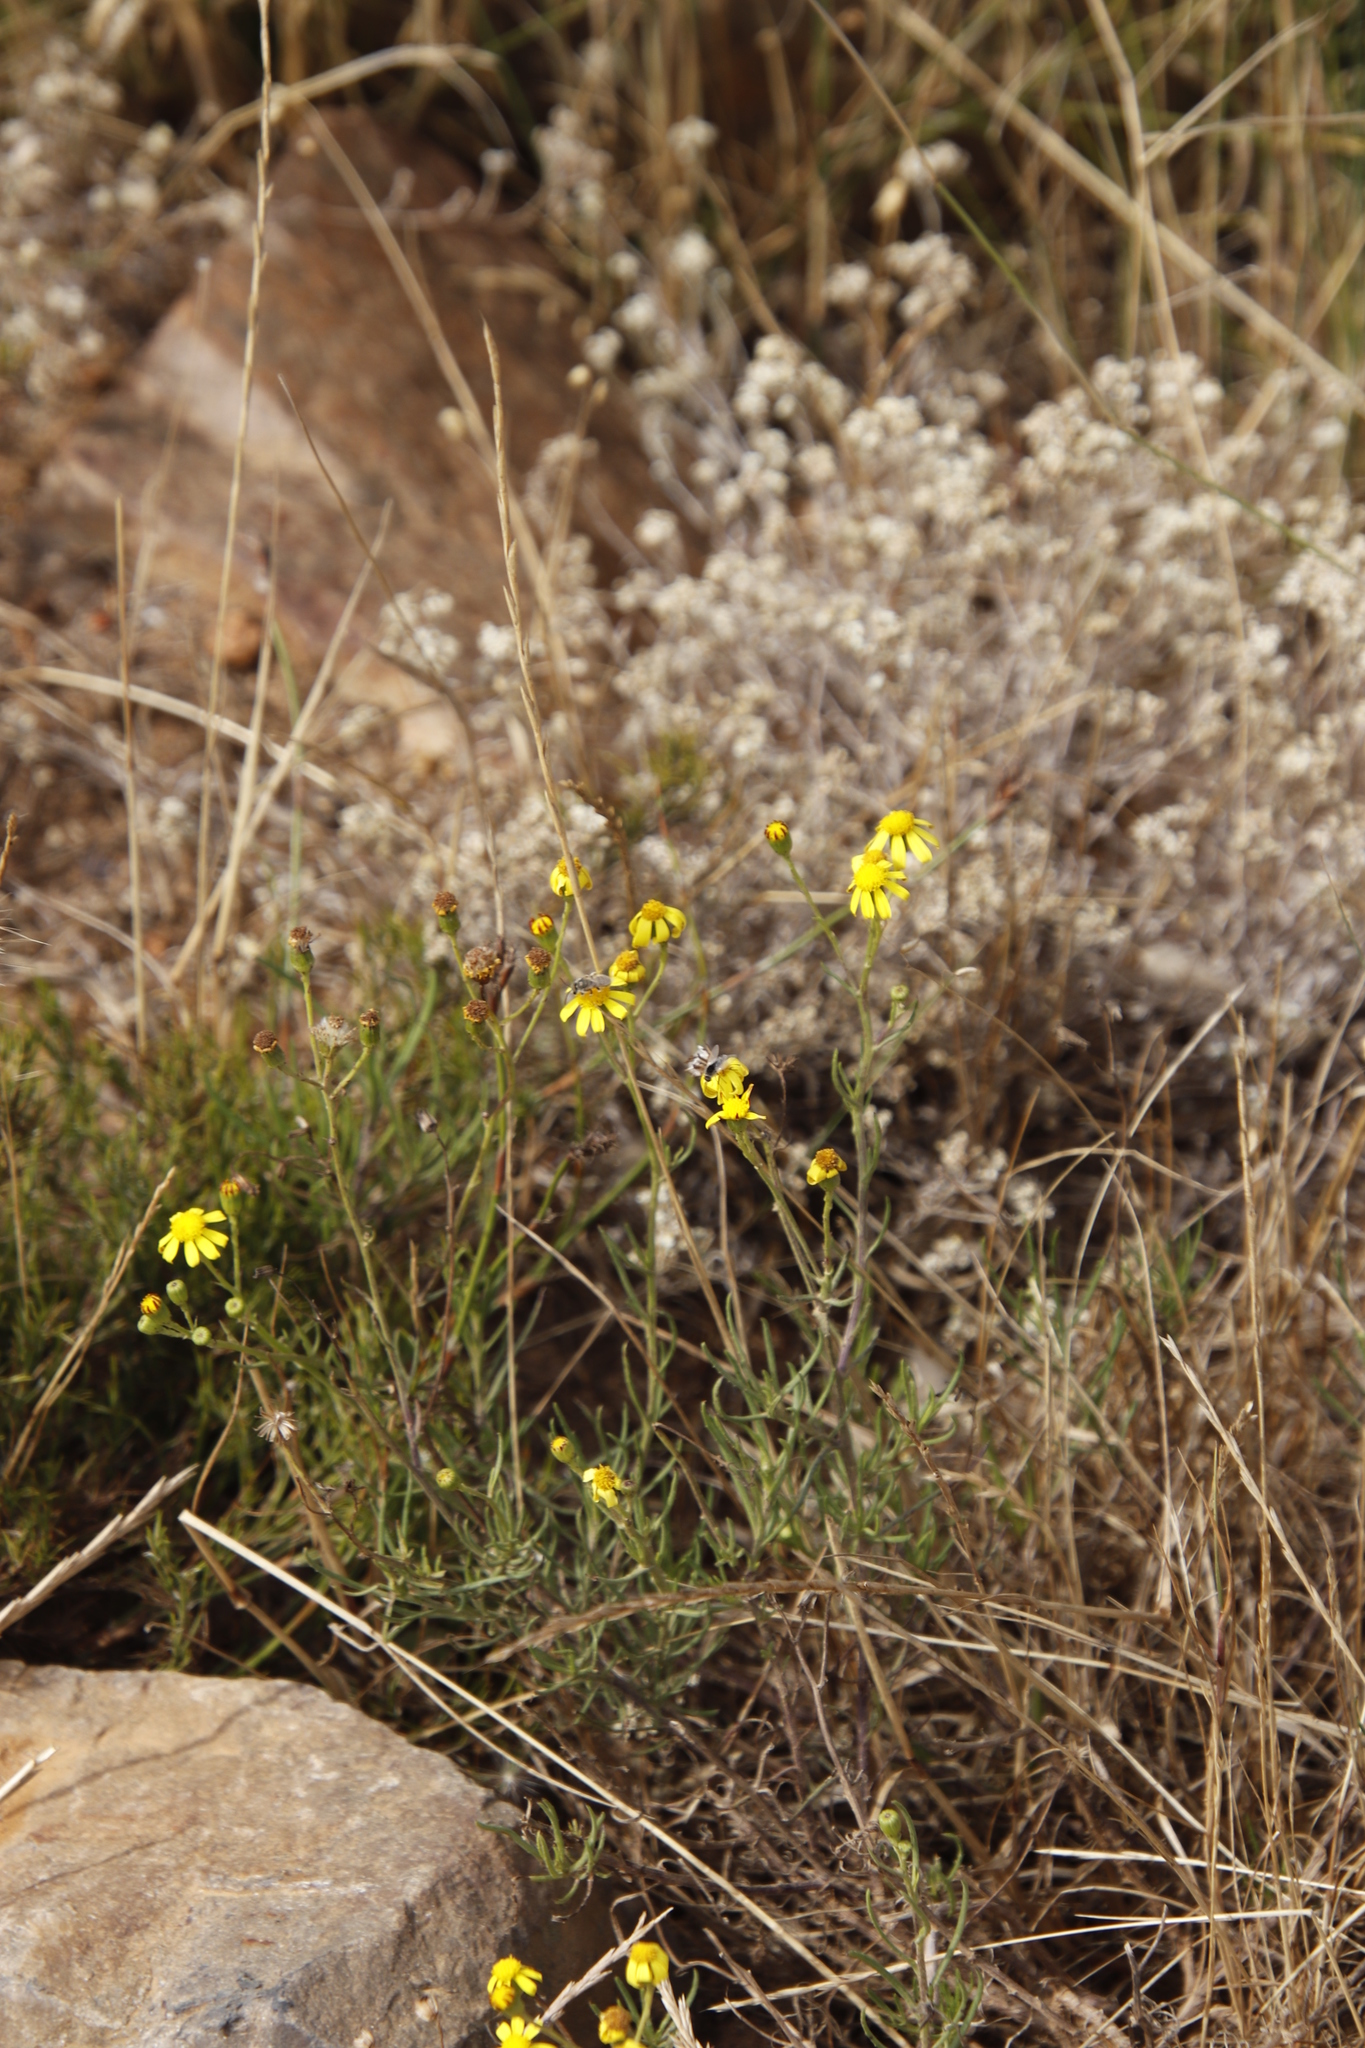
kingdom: Plantae
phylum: Tracheophyta
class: Magnoliopsida
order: Asterales
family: Asteraceae
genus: Senecio
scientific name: Senecio burchellii
